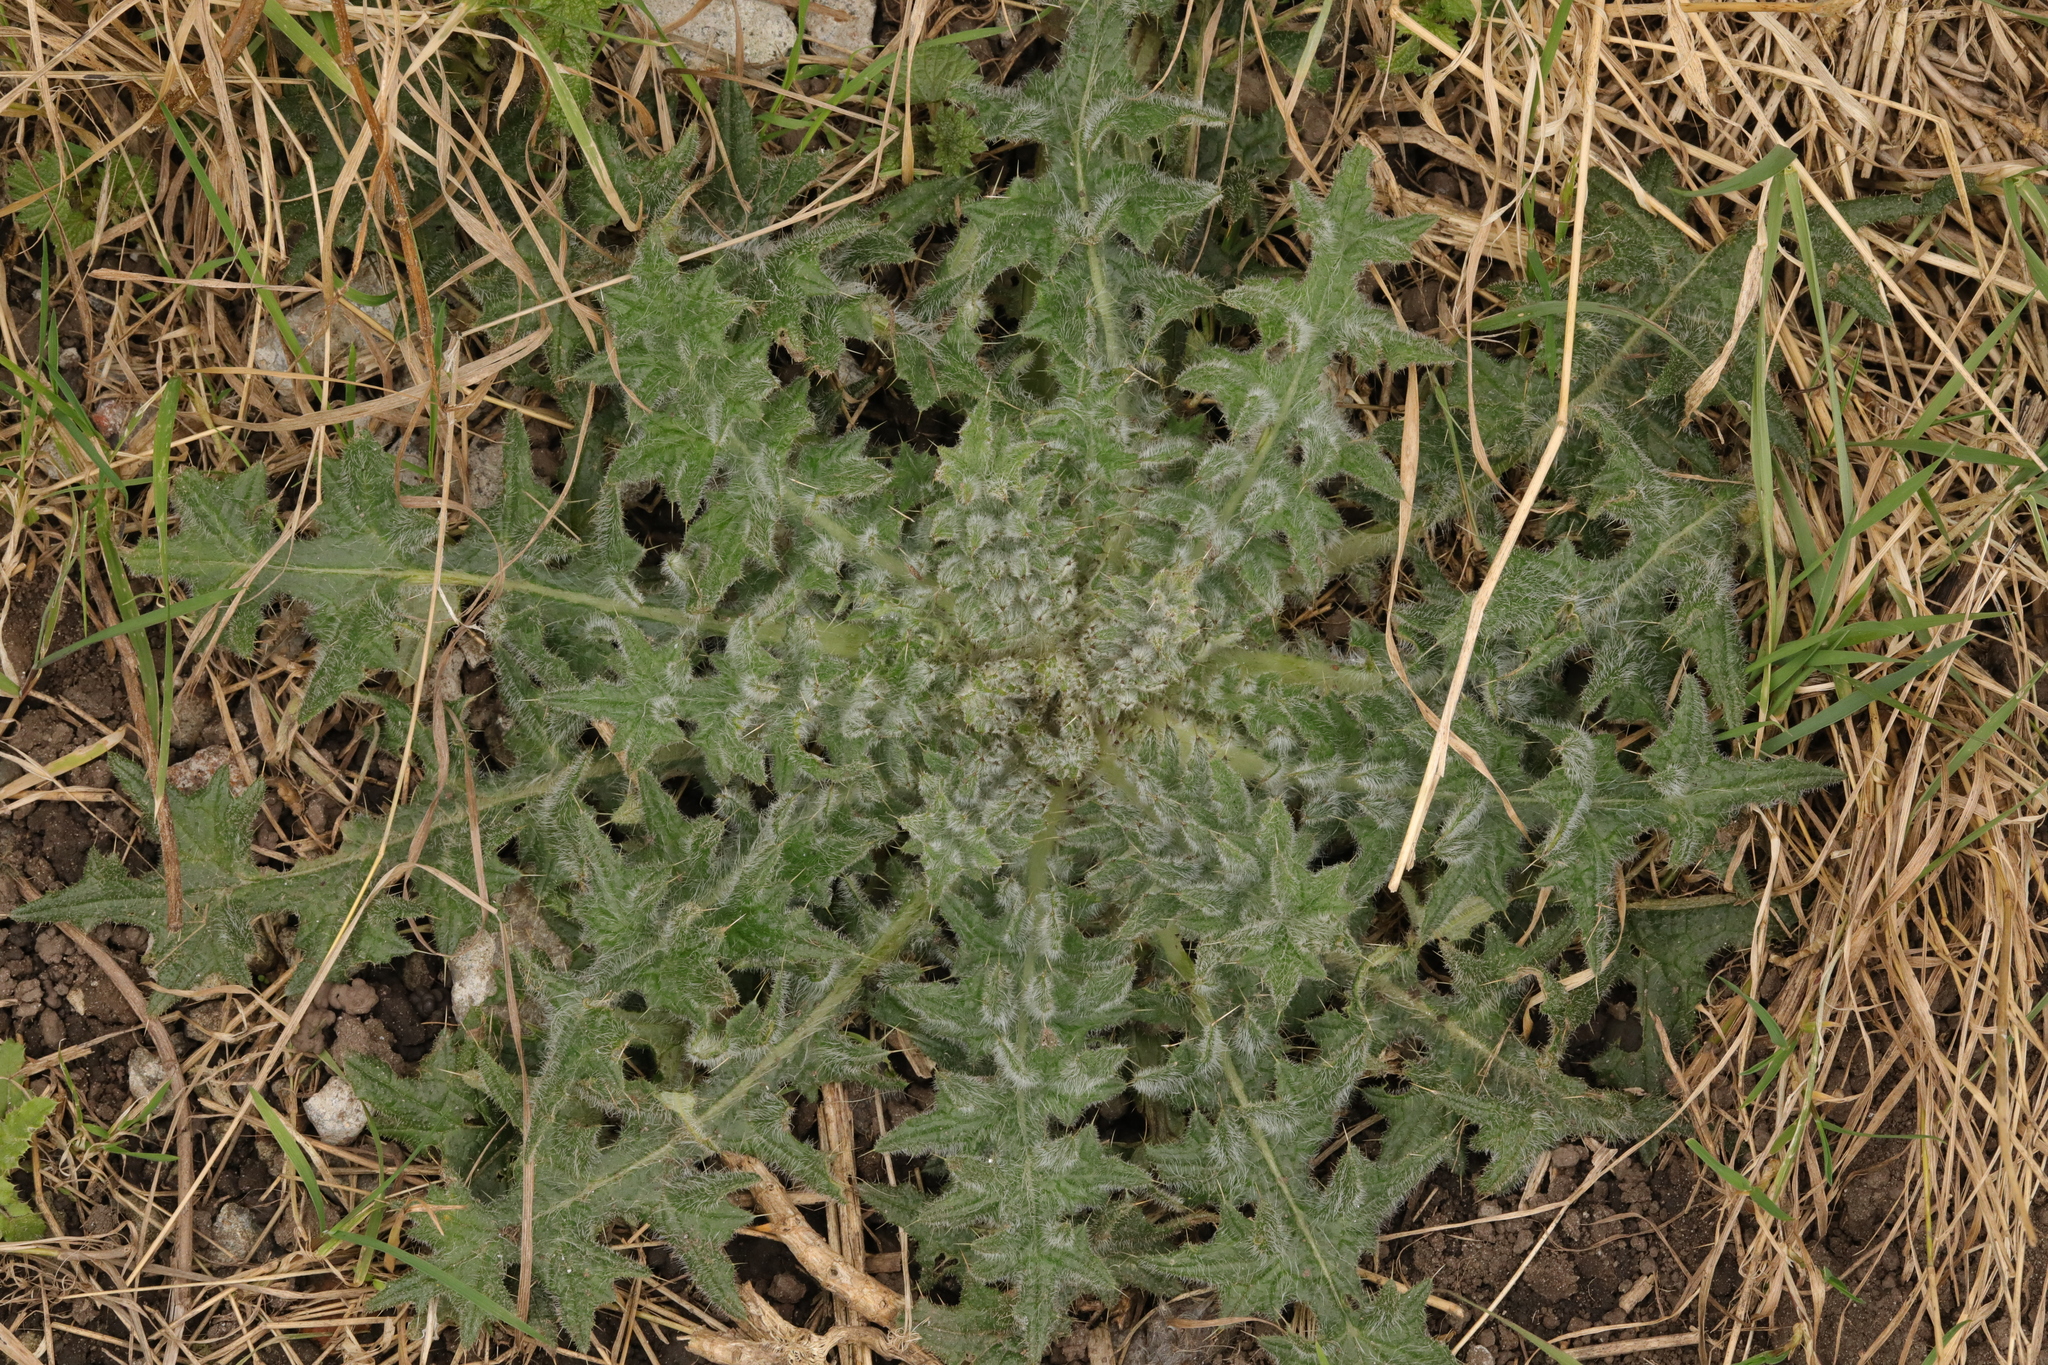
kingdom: Plantae
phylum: Tracheophyta
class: Magnoliopsida
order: Asterales
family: Asteraceae
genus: Cirsium
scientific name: Cirsium vulgare
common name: Bull thistle
